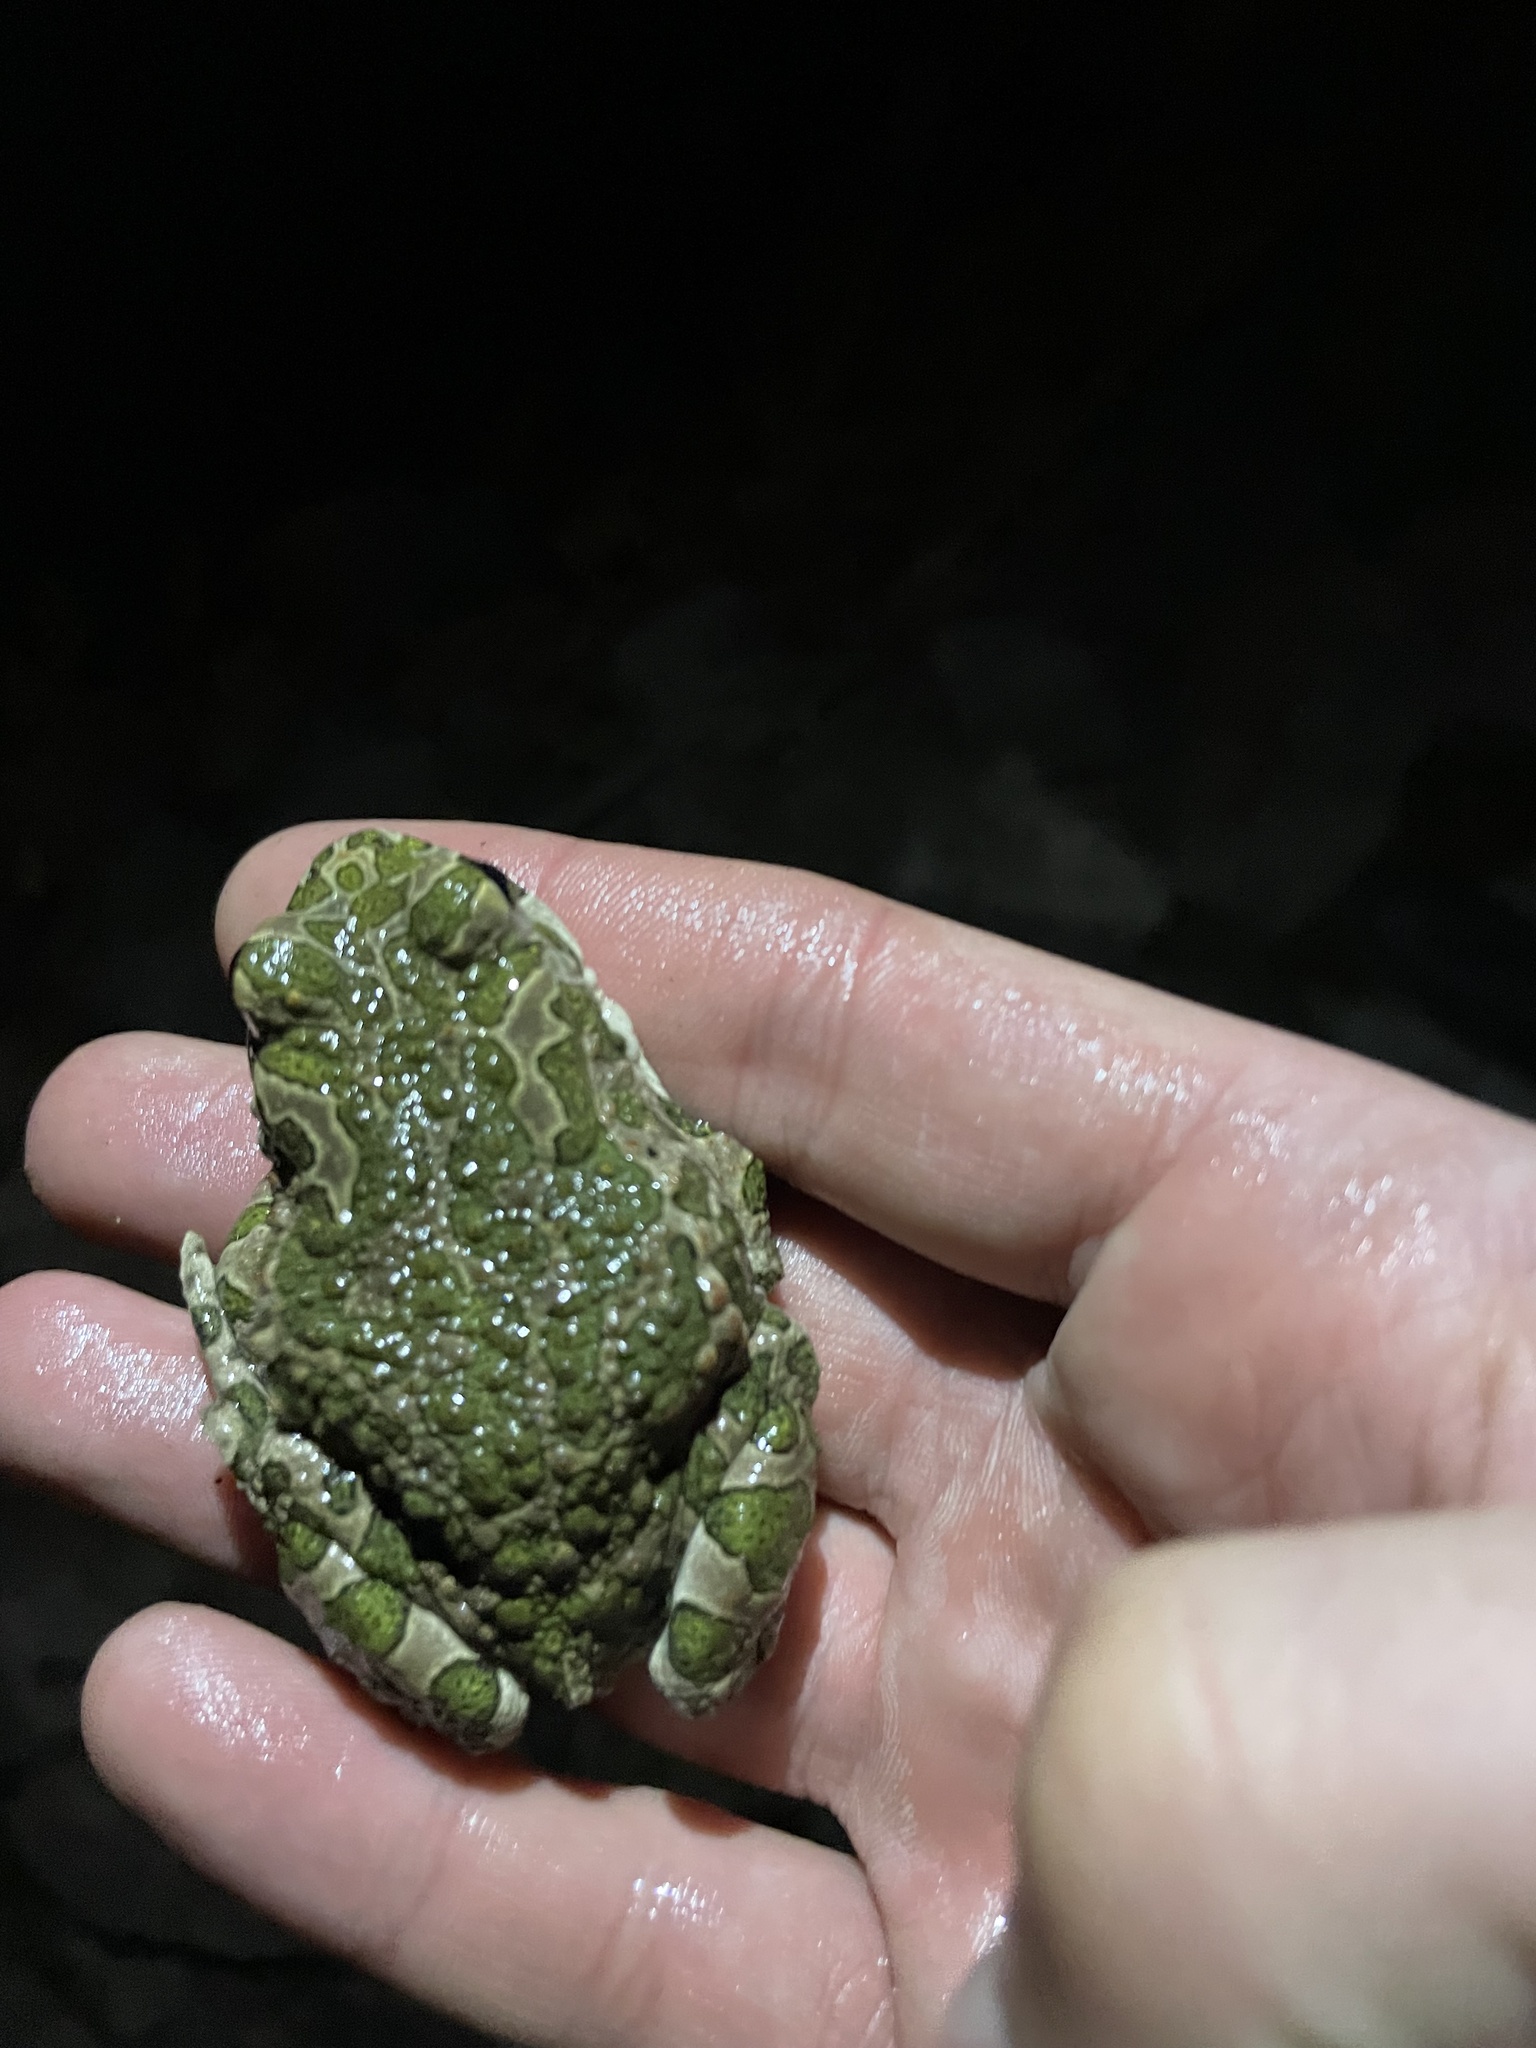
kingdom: Animalia
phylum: Chordata
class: Amphibia
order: Anura
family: Bufonidae
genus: Bufotes
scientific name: Bufotes viridis
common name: European green toad
